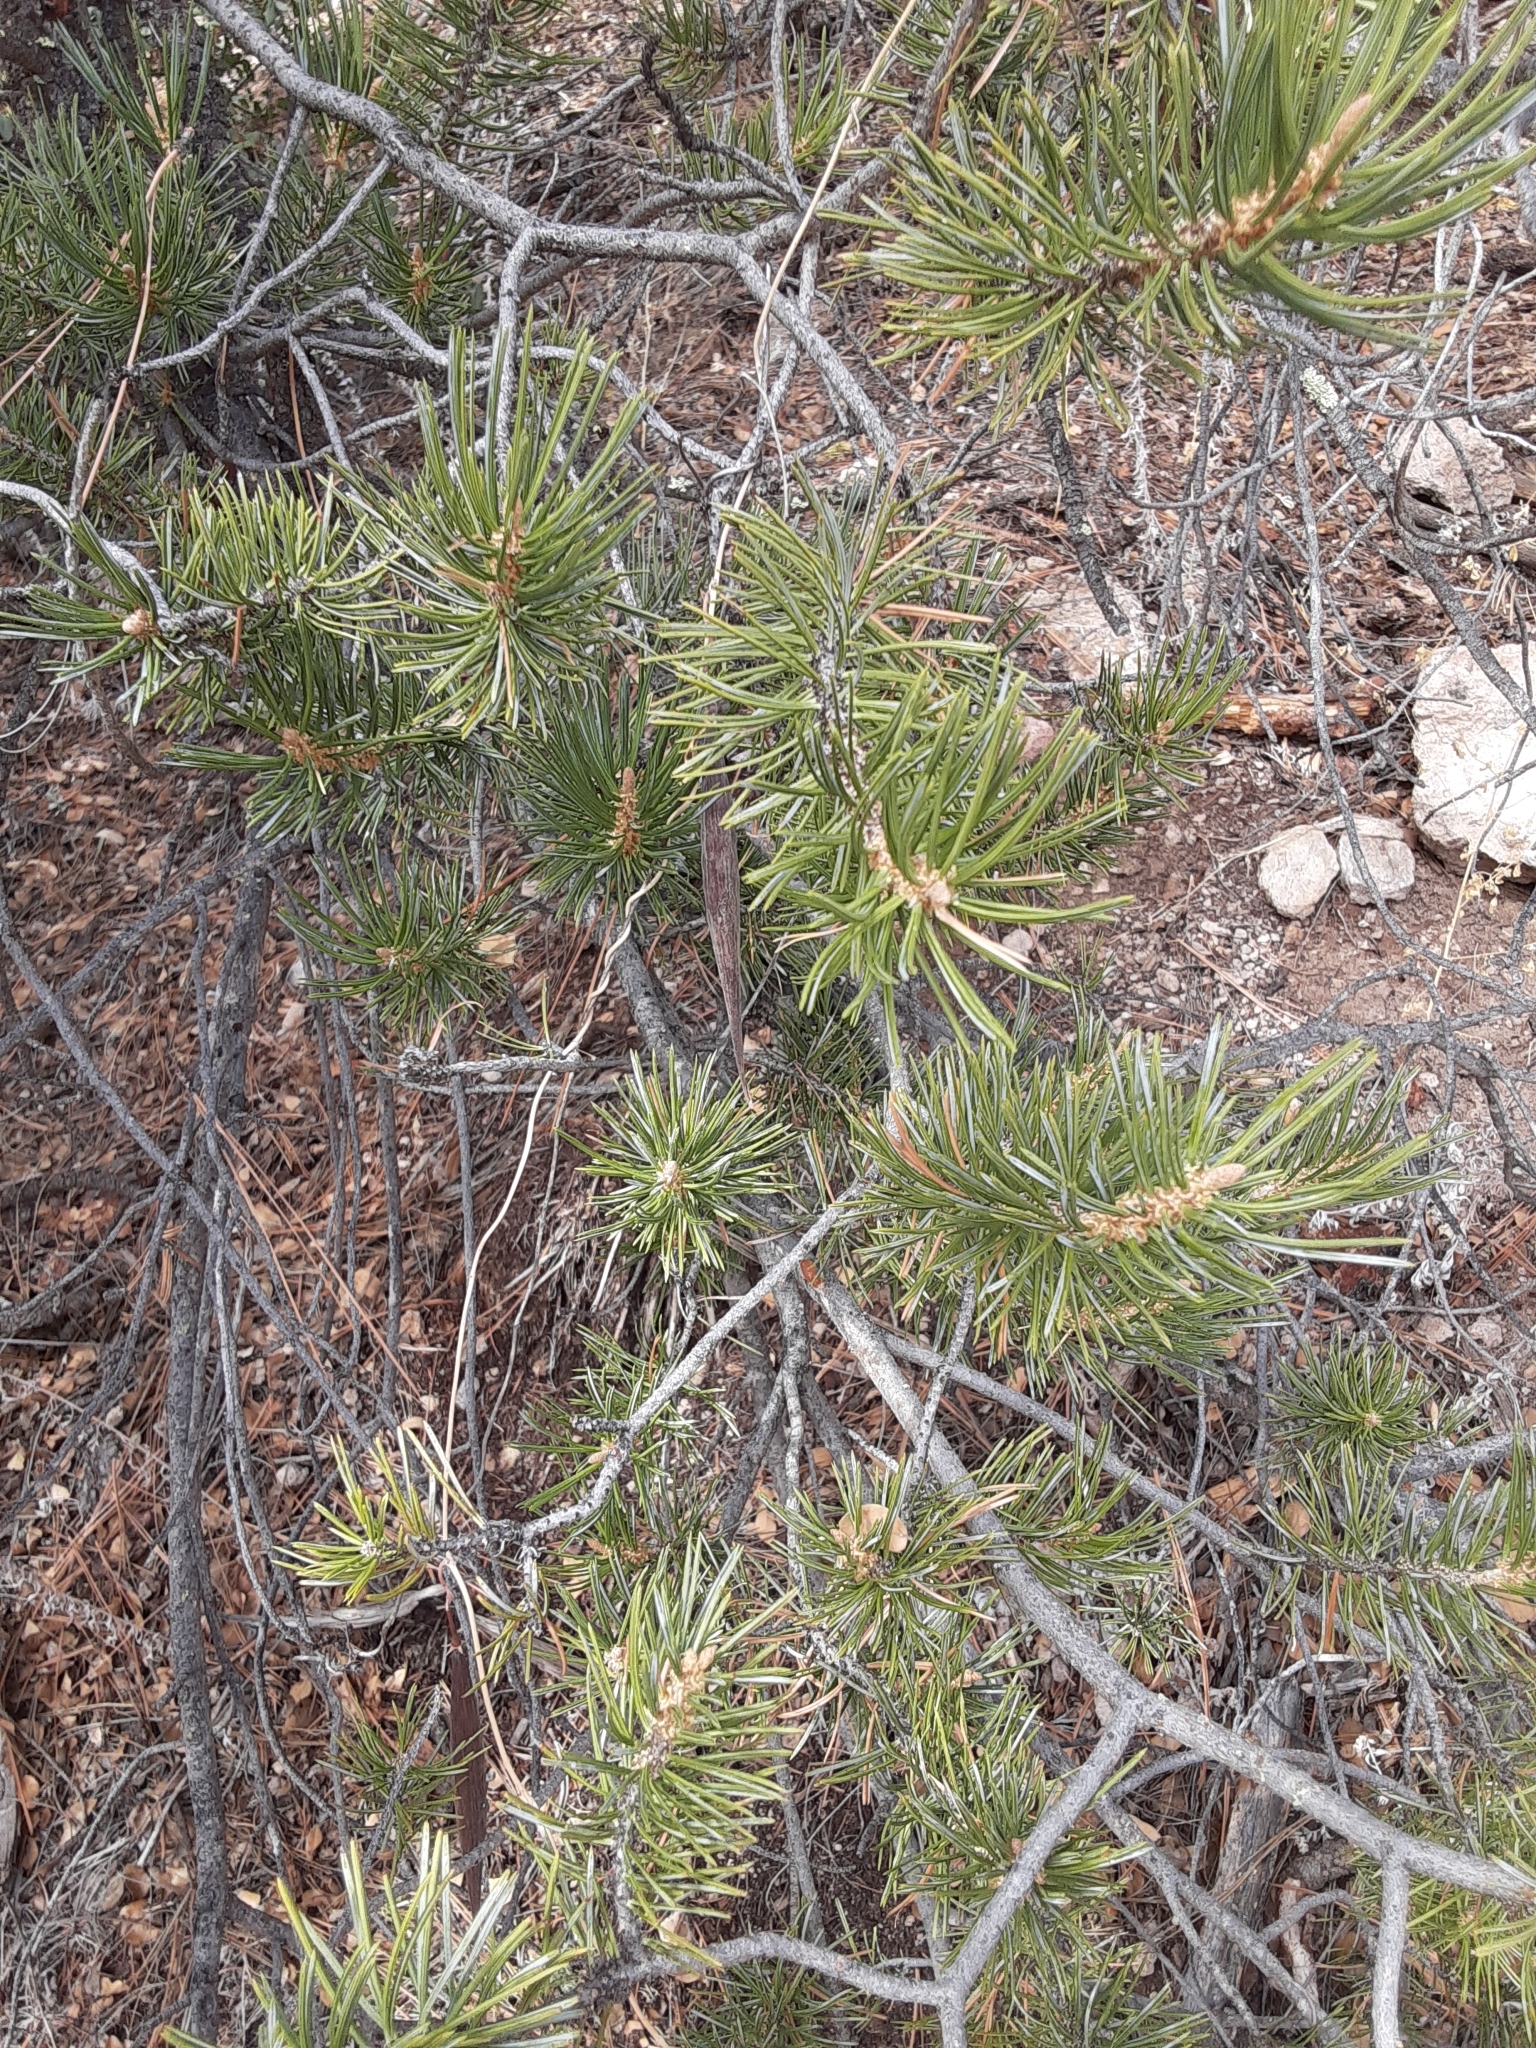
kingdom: Plantae
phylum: Tracheophyta
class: Pinopsida
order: Pinales
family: Pinaceae
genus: Pinus
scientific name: Pinus edulis
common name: Colorado pinyon
